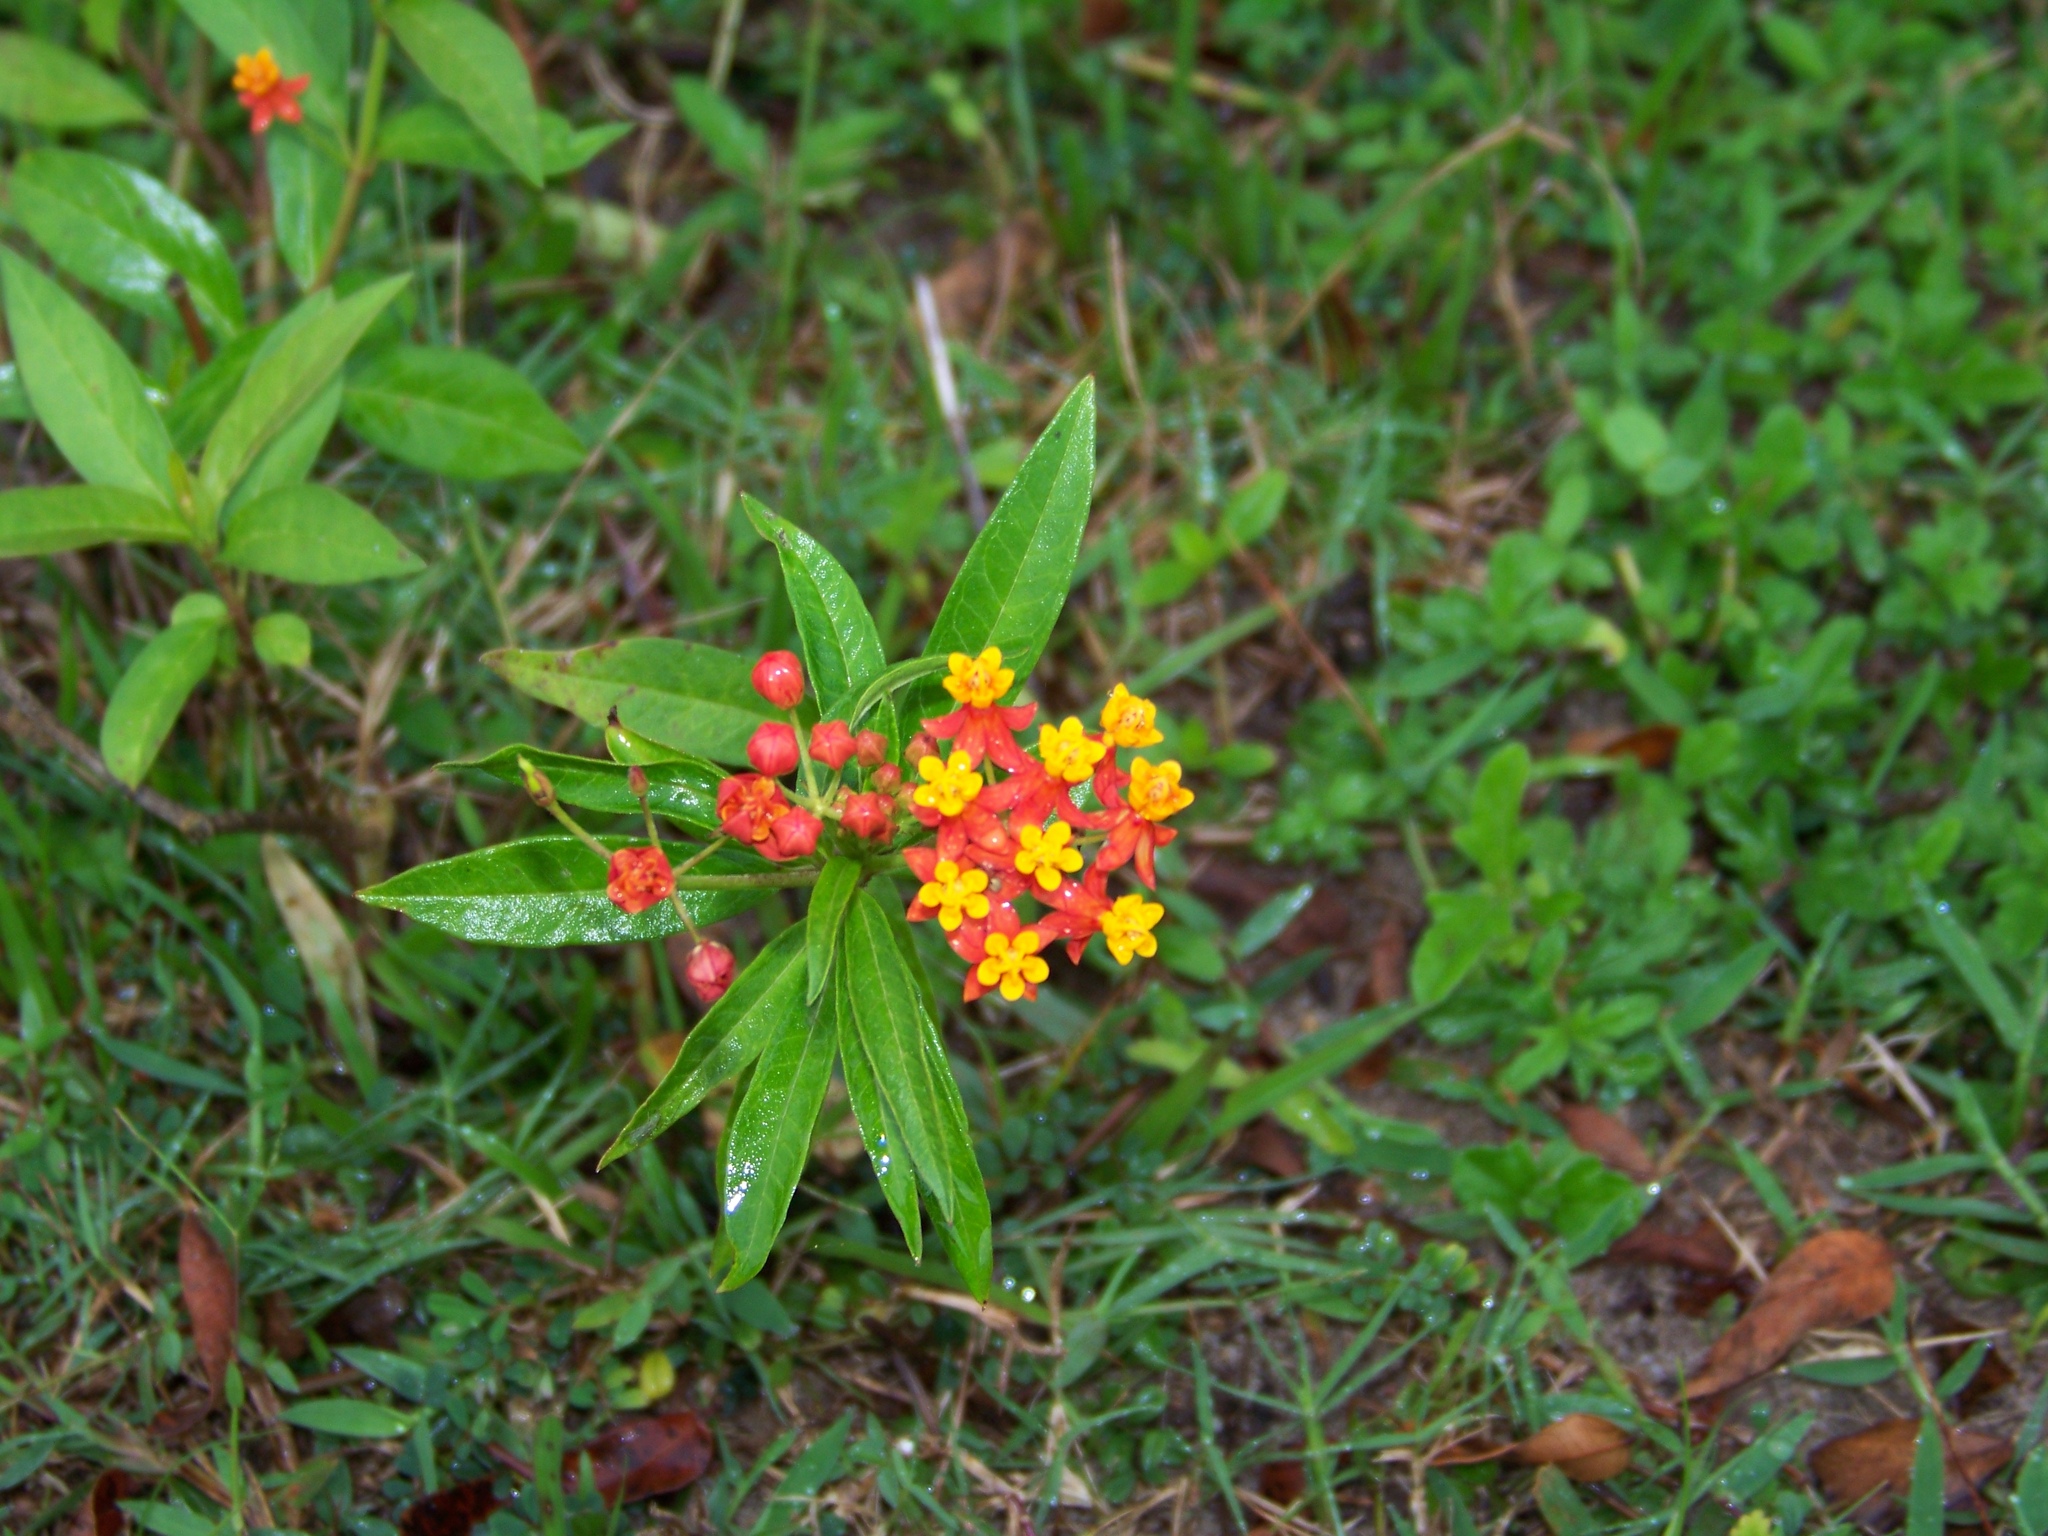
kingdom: Plantae
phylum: Tracheophyta
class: Magnoliopsida
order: Gentianales
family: Apocynaceae
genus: Asclepias
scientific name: Asclepias curassavica
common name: Bloodflower
